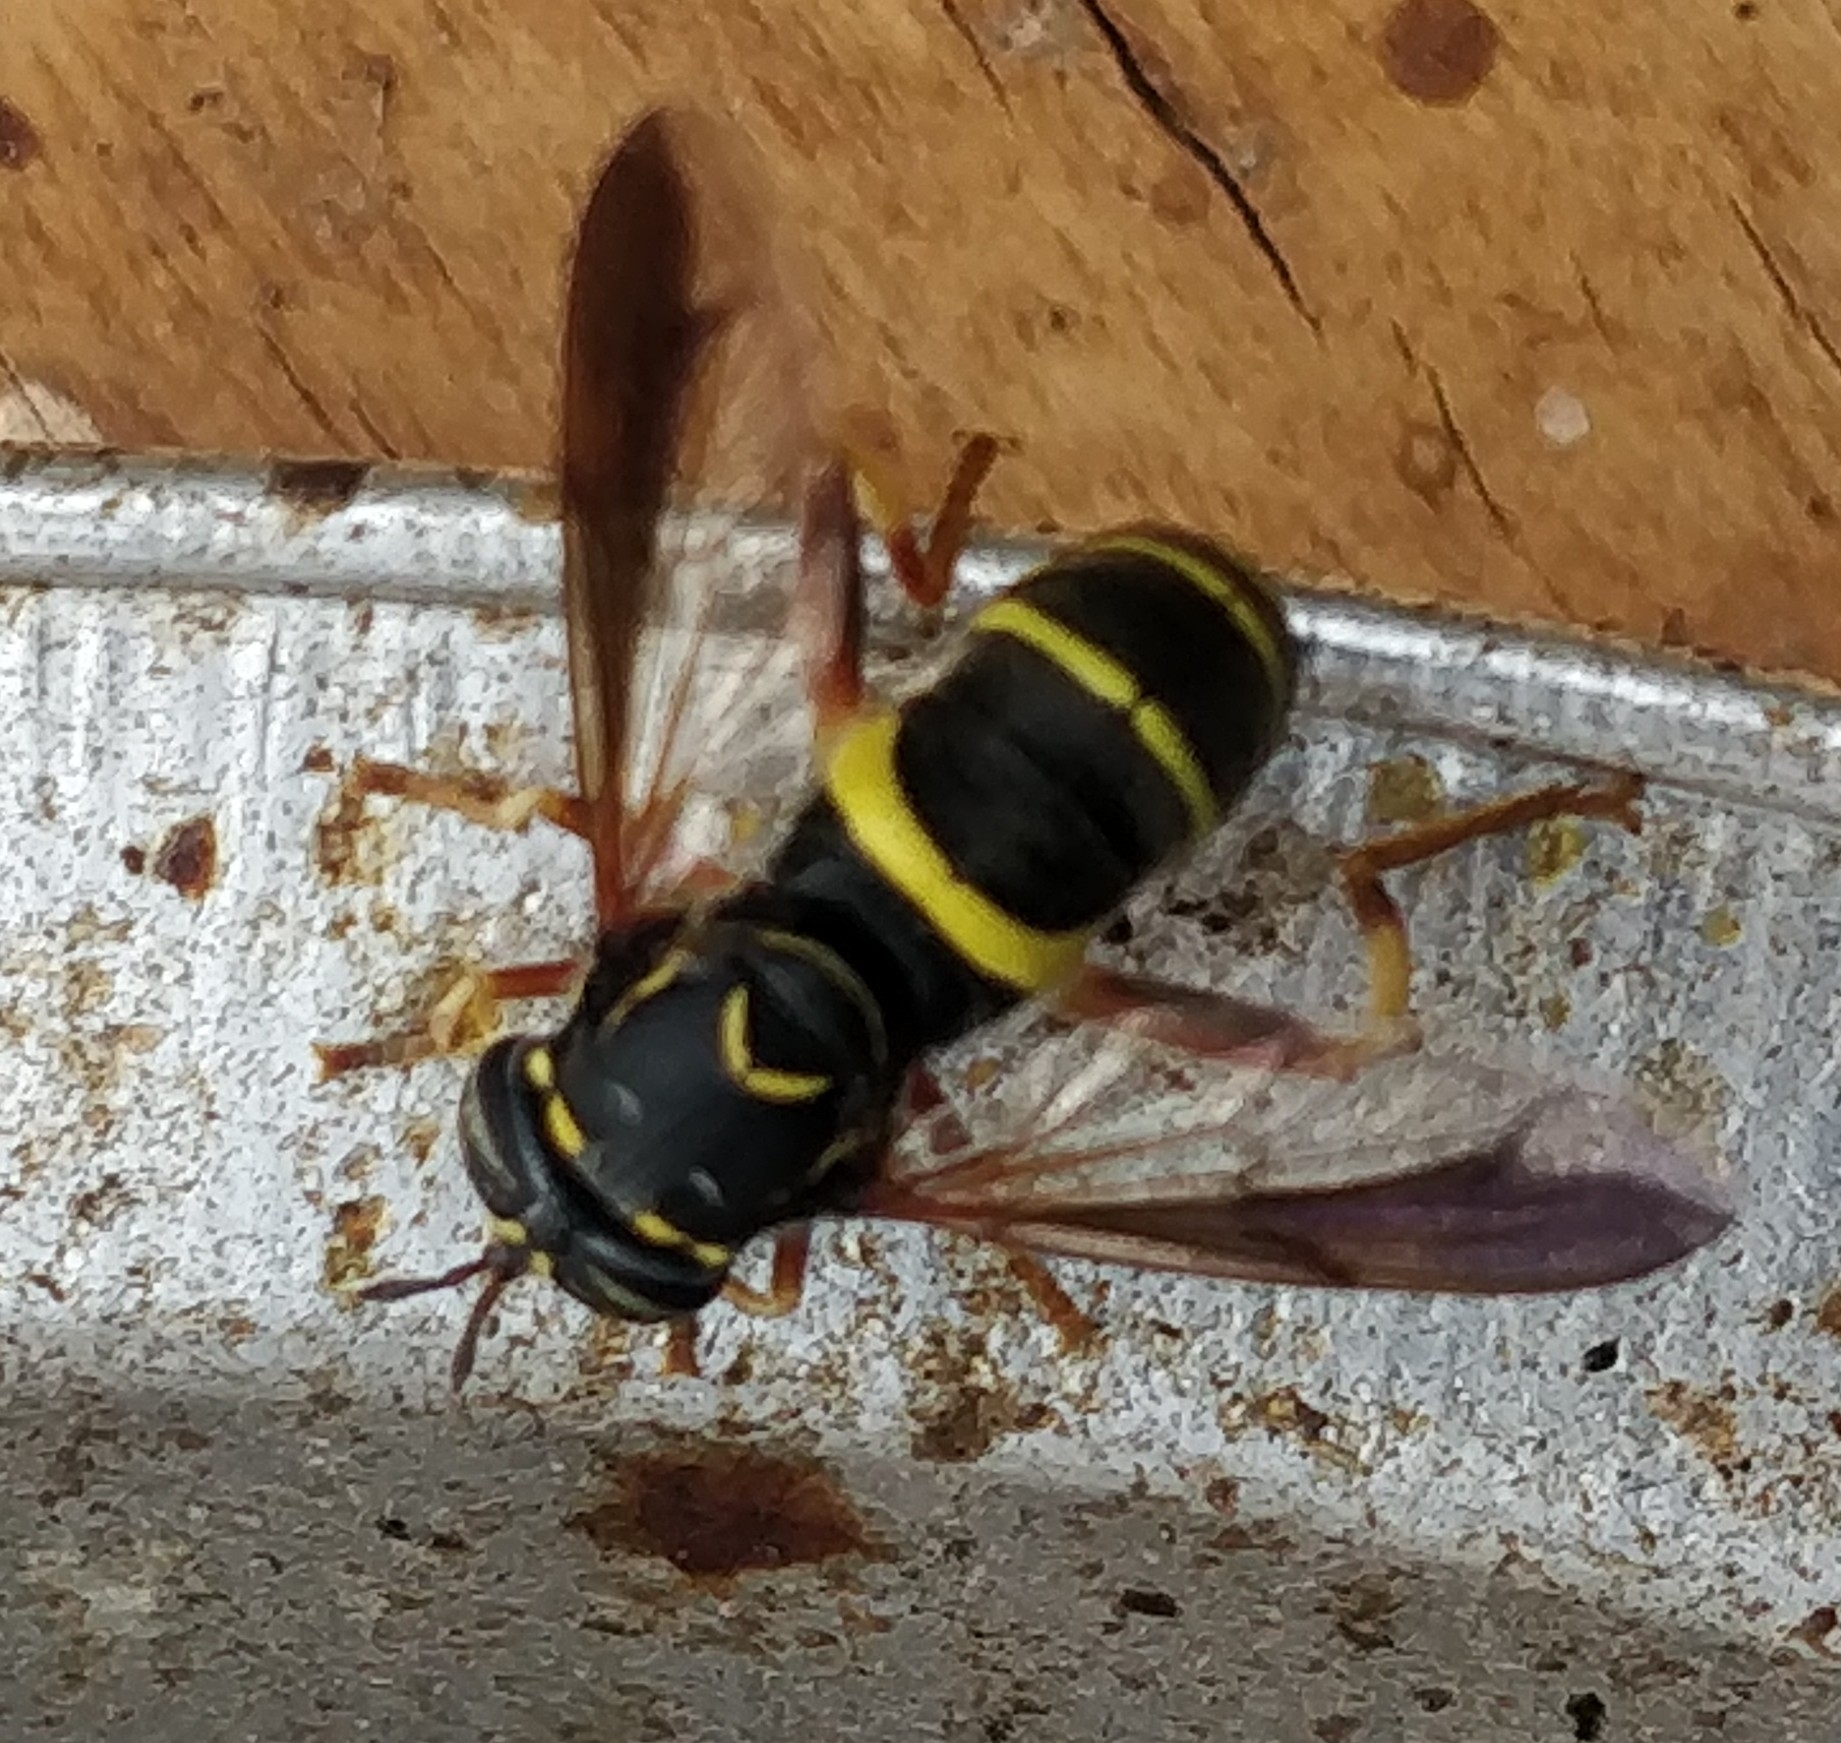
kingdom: Animalia
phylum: Arthropoda
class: Insecta
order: Diptera
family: Syrphidae
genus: Spilomyia
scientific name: Spilomyia sayi
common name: Four-lined hornet fly
